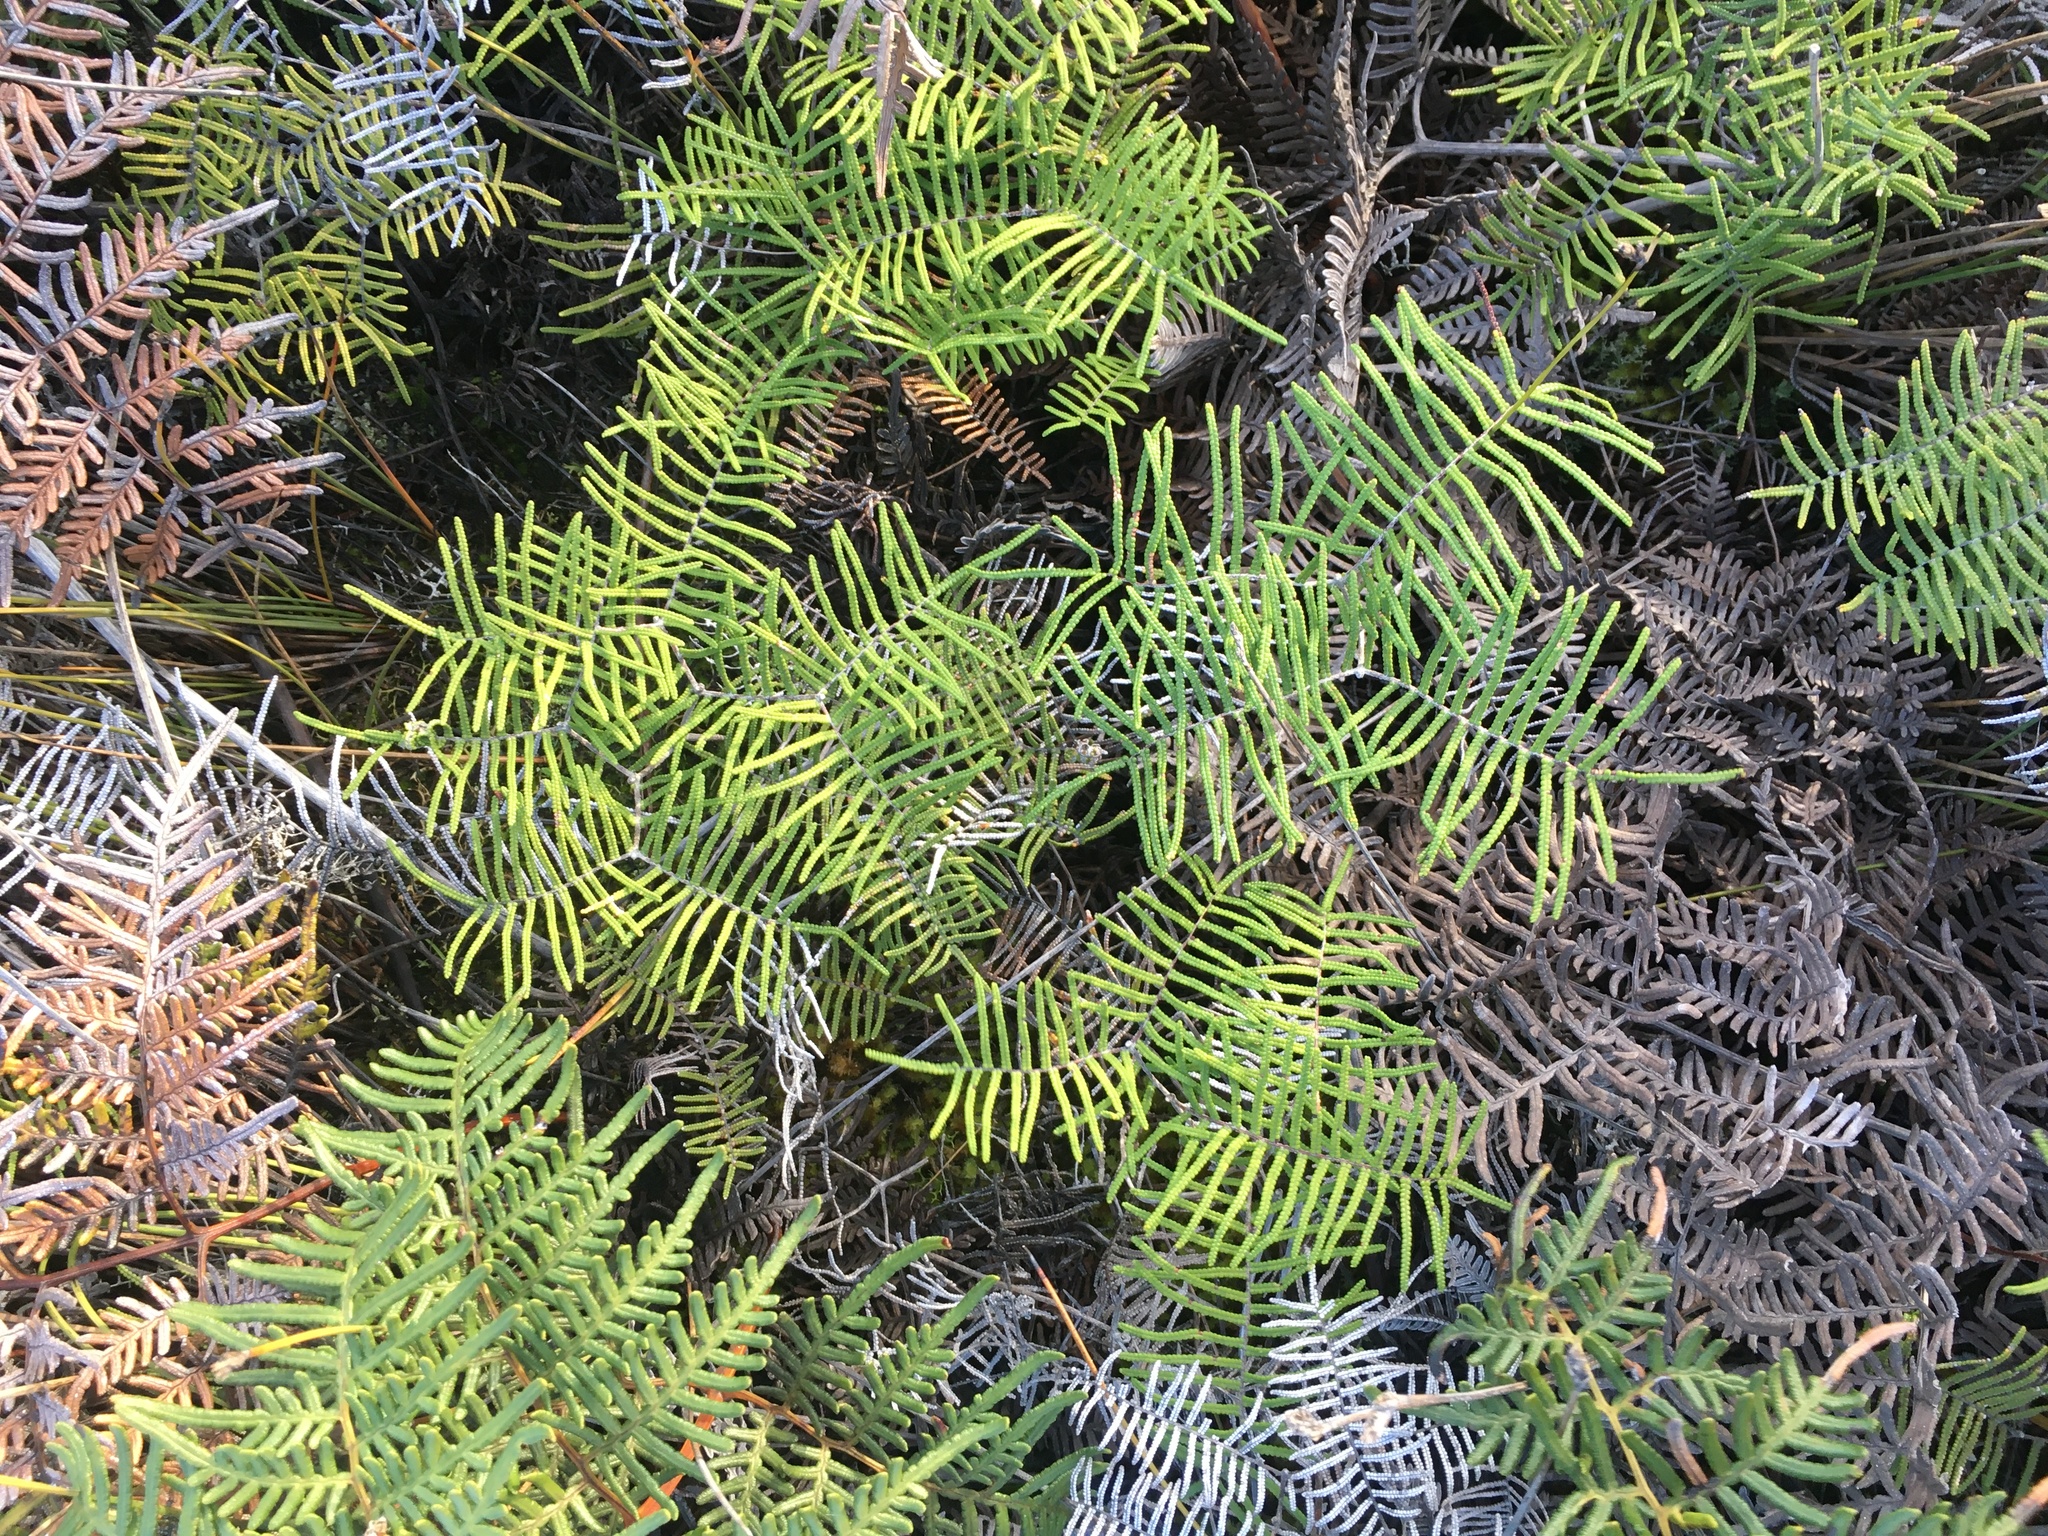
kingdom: Plantae
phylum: Tracheophyta
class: Polypodiopsida
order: Gleicheniales
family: Gleicheniaceae
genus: Gleichenia
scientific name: Gleichenia dicarpa
